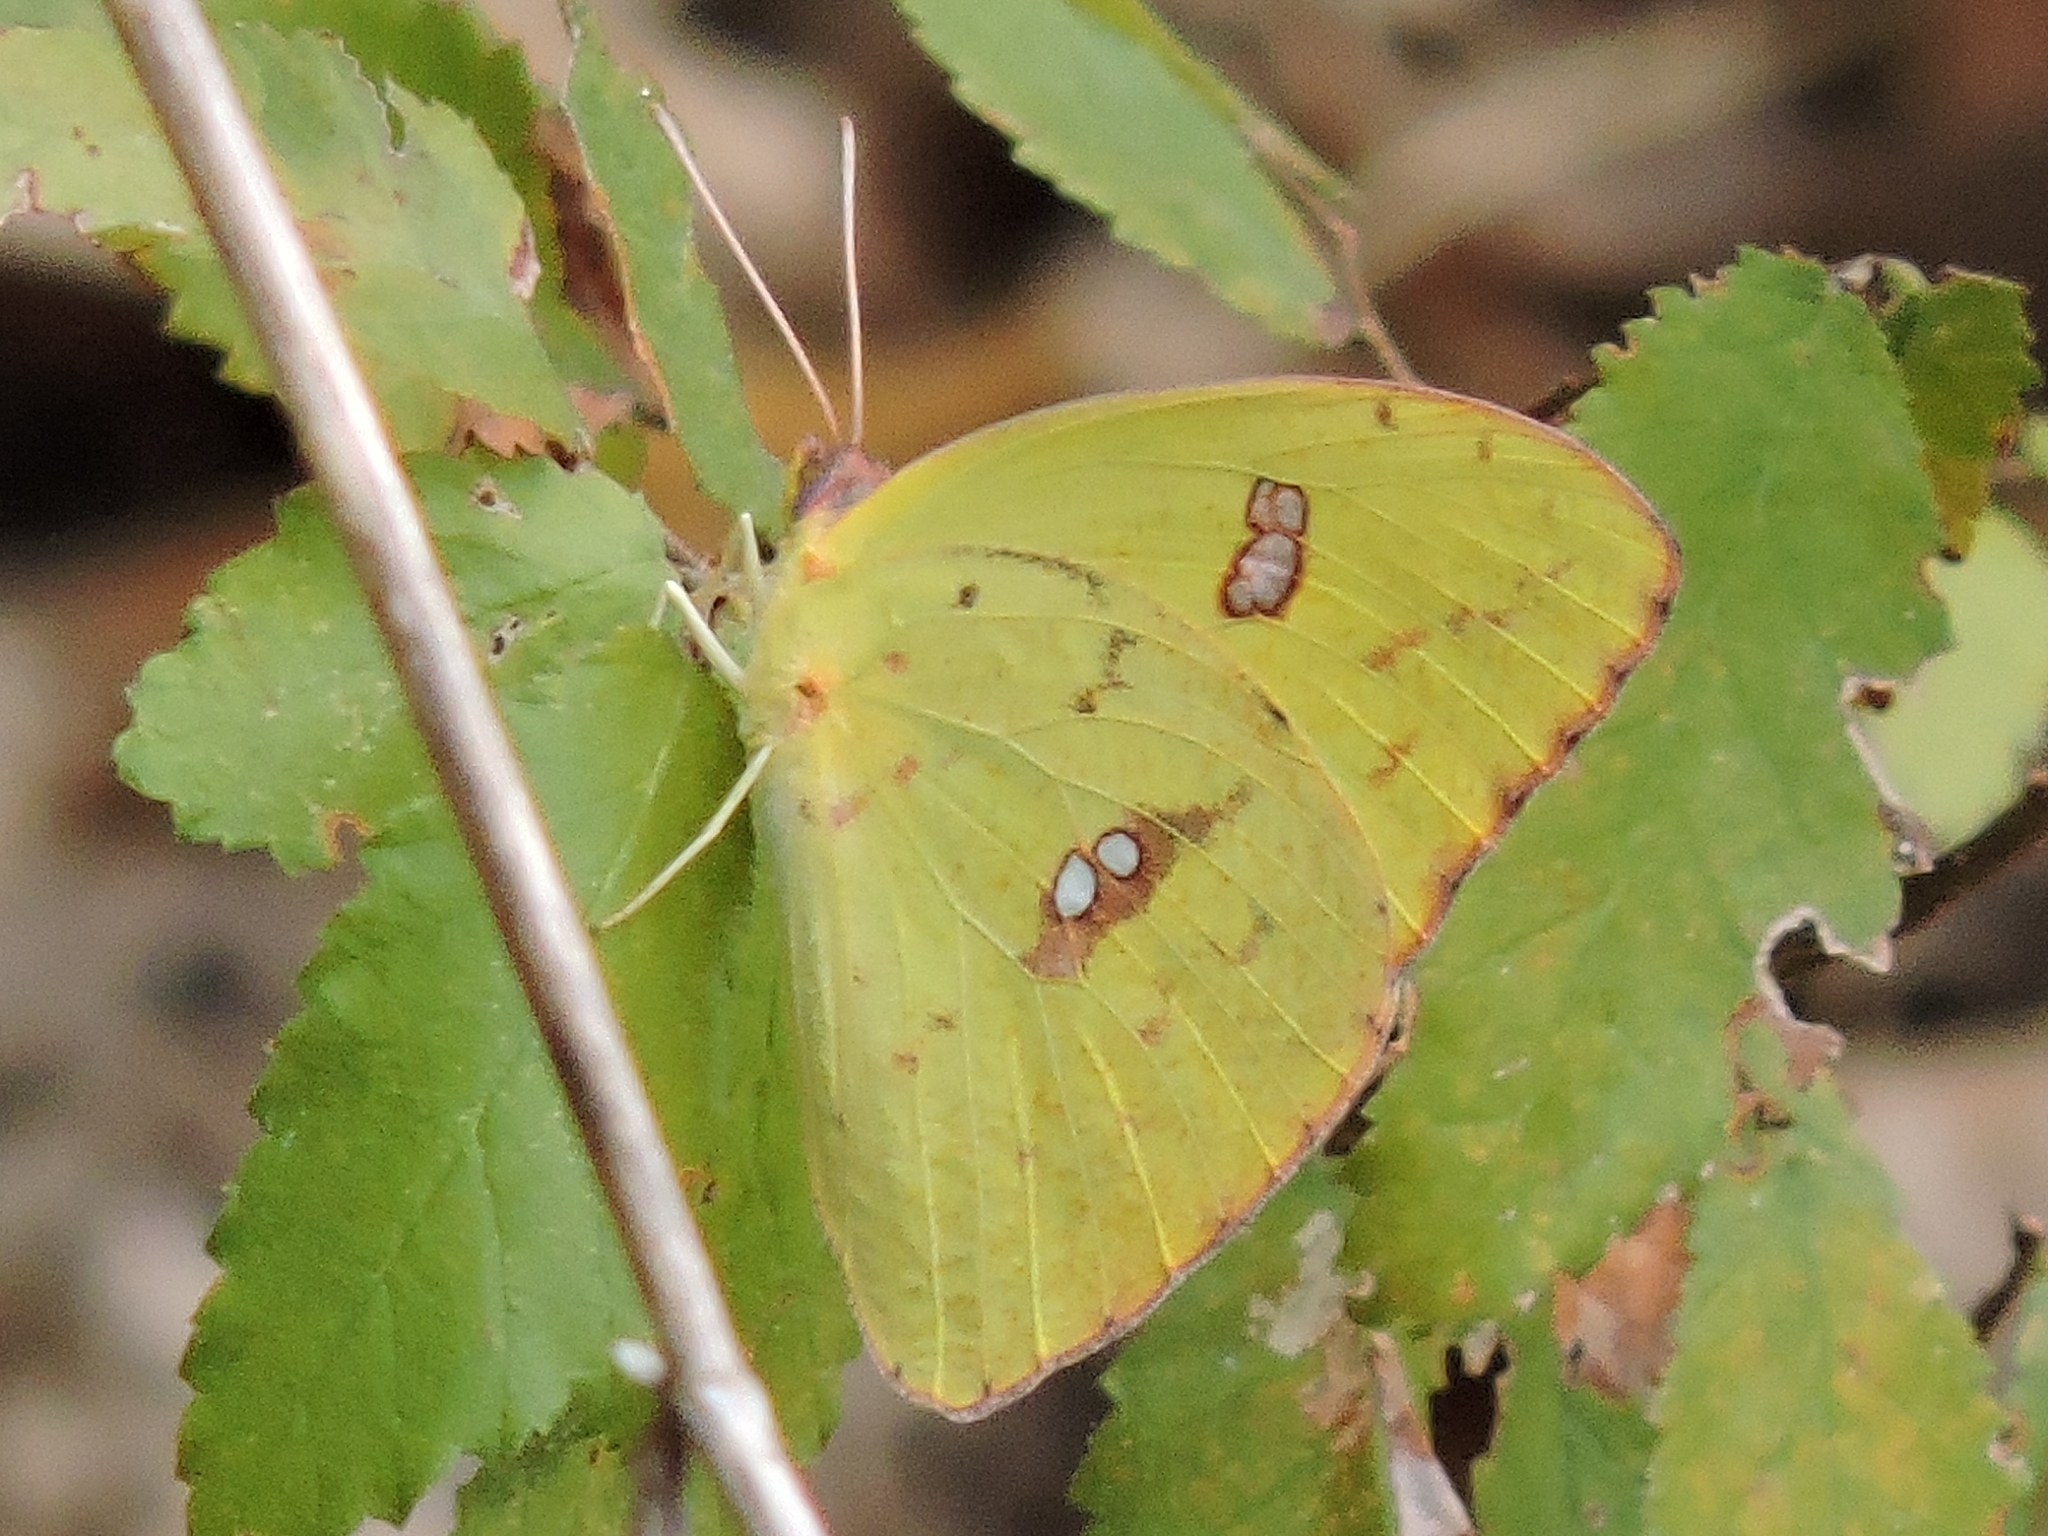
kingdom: Animalia
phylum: Arthropoda
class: Insecta
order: Lepidoptera
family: Pieridae
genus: Phoebis
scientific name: Phoebis sennae
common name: Cloudless sulphur
